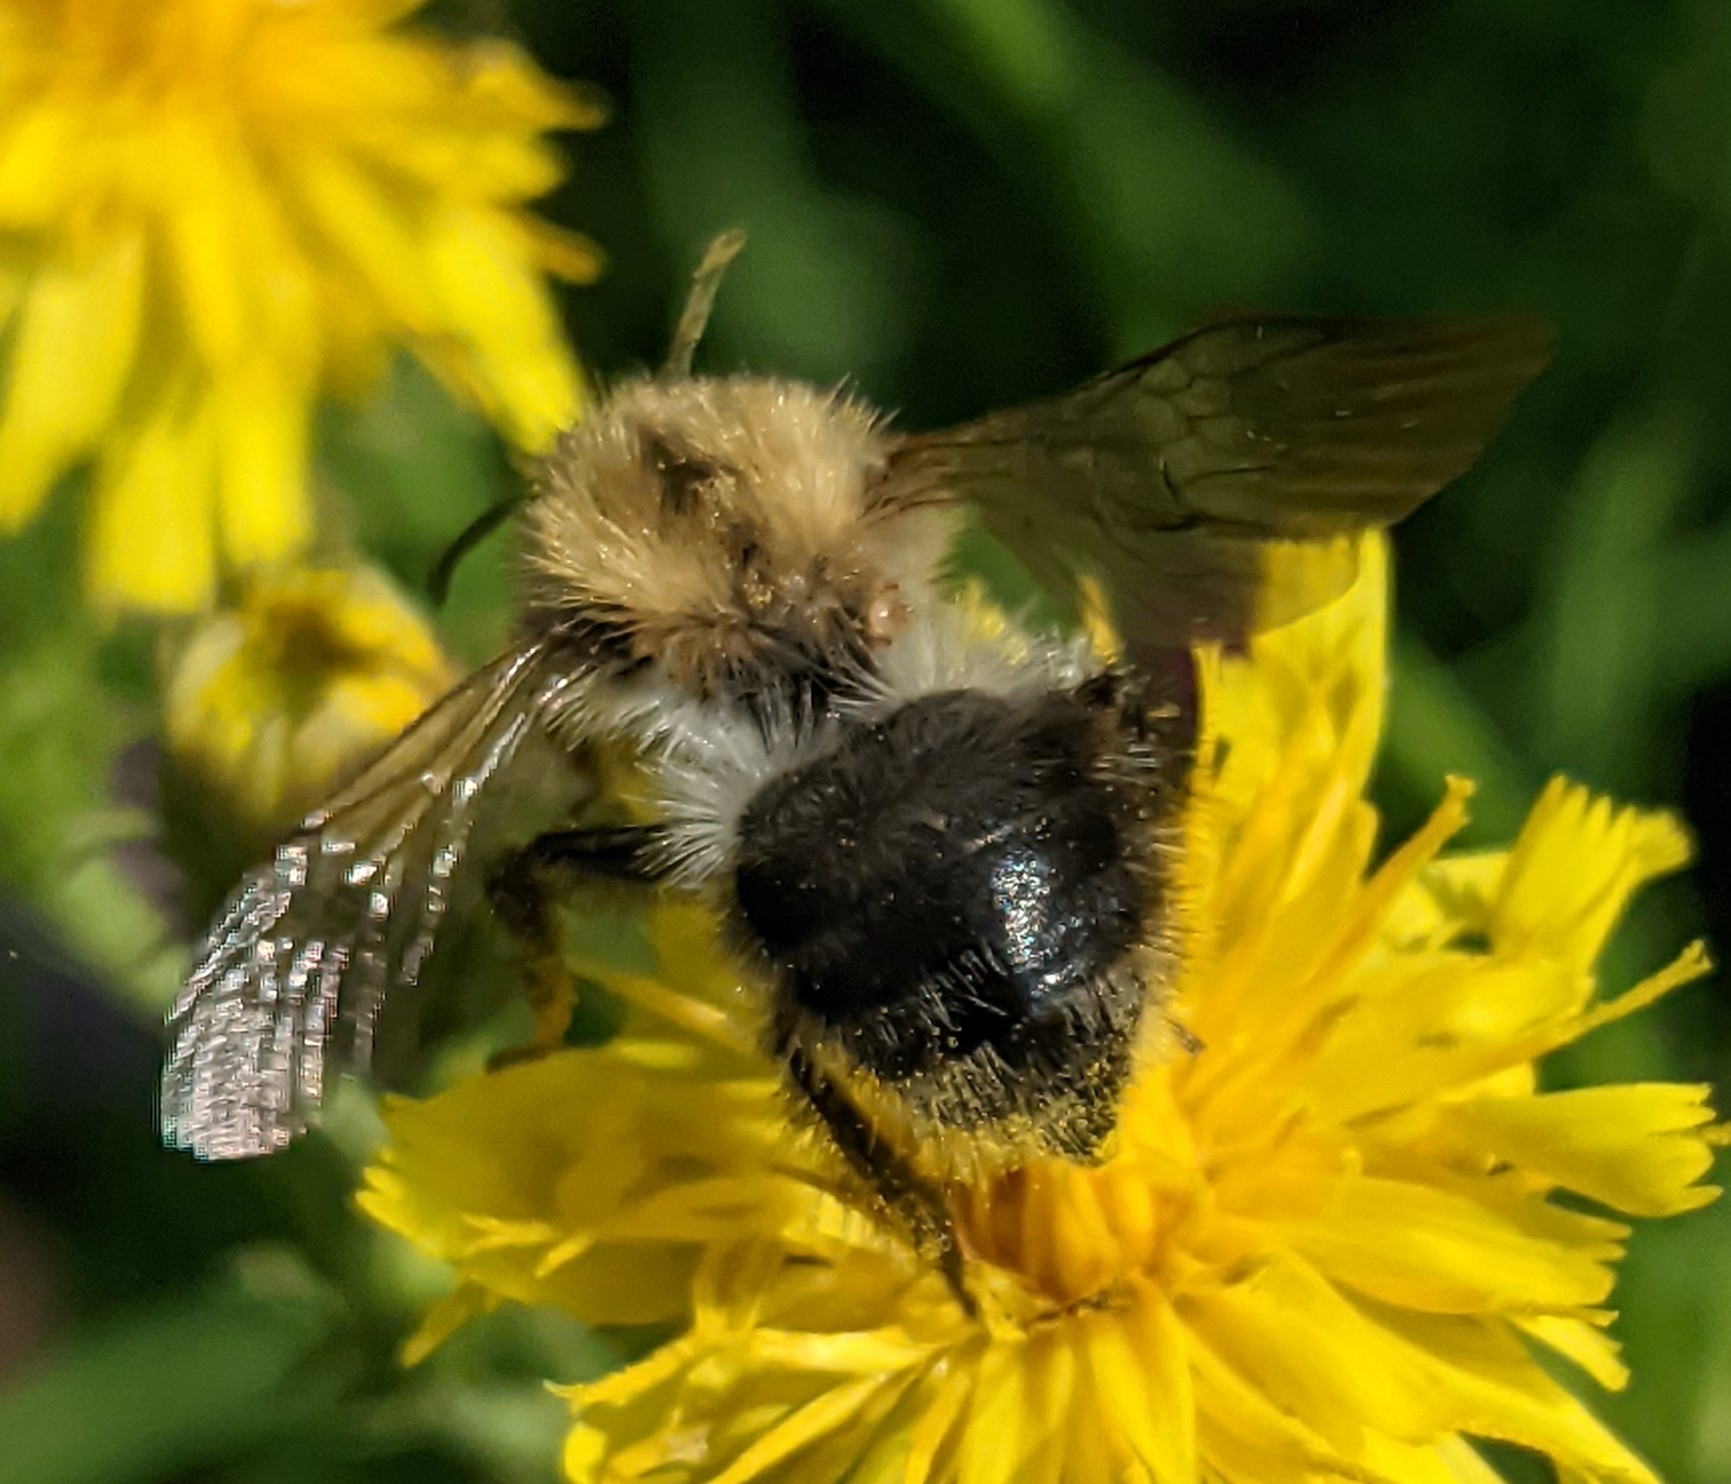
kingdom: Animalia
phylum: Arthropoda
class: Insecta
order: Hymenoptera
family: Apidae
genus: Bombus
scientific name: Bombus pascuorum
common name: Common carder bee
